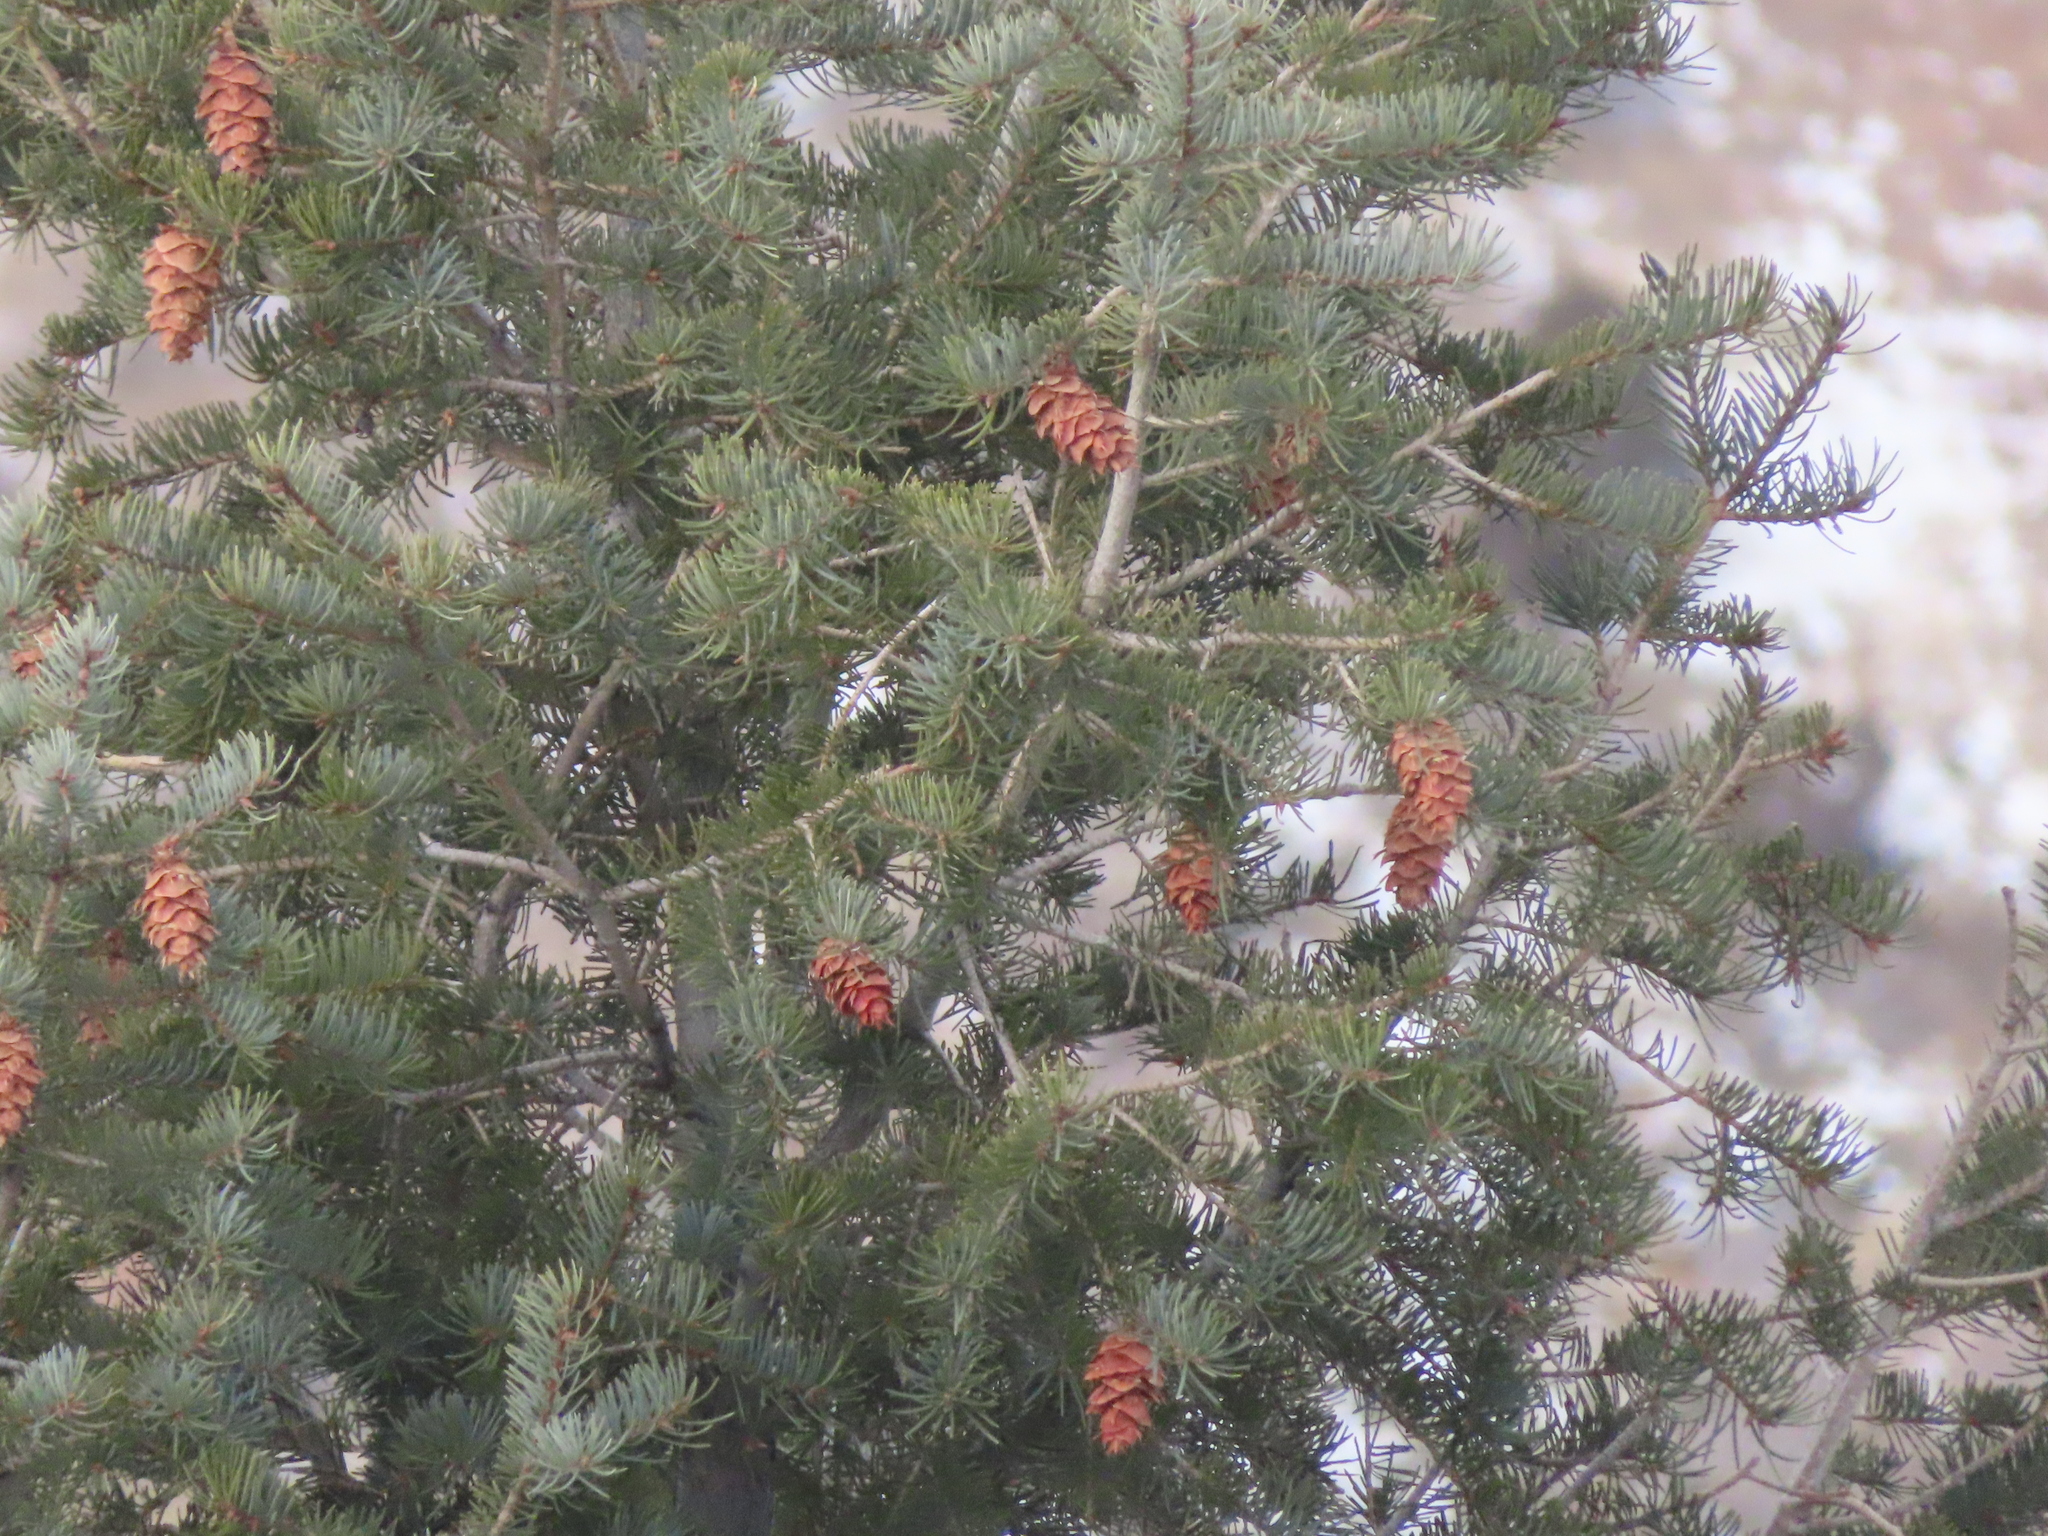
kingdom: Plantae
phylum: Tracheophyta
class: Pinopsida
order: Pinales
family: Pinaceae
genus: Pseudotsuga
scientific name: Pseudotsuga menziesii
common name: Douglas fir
